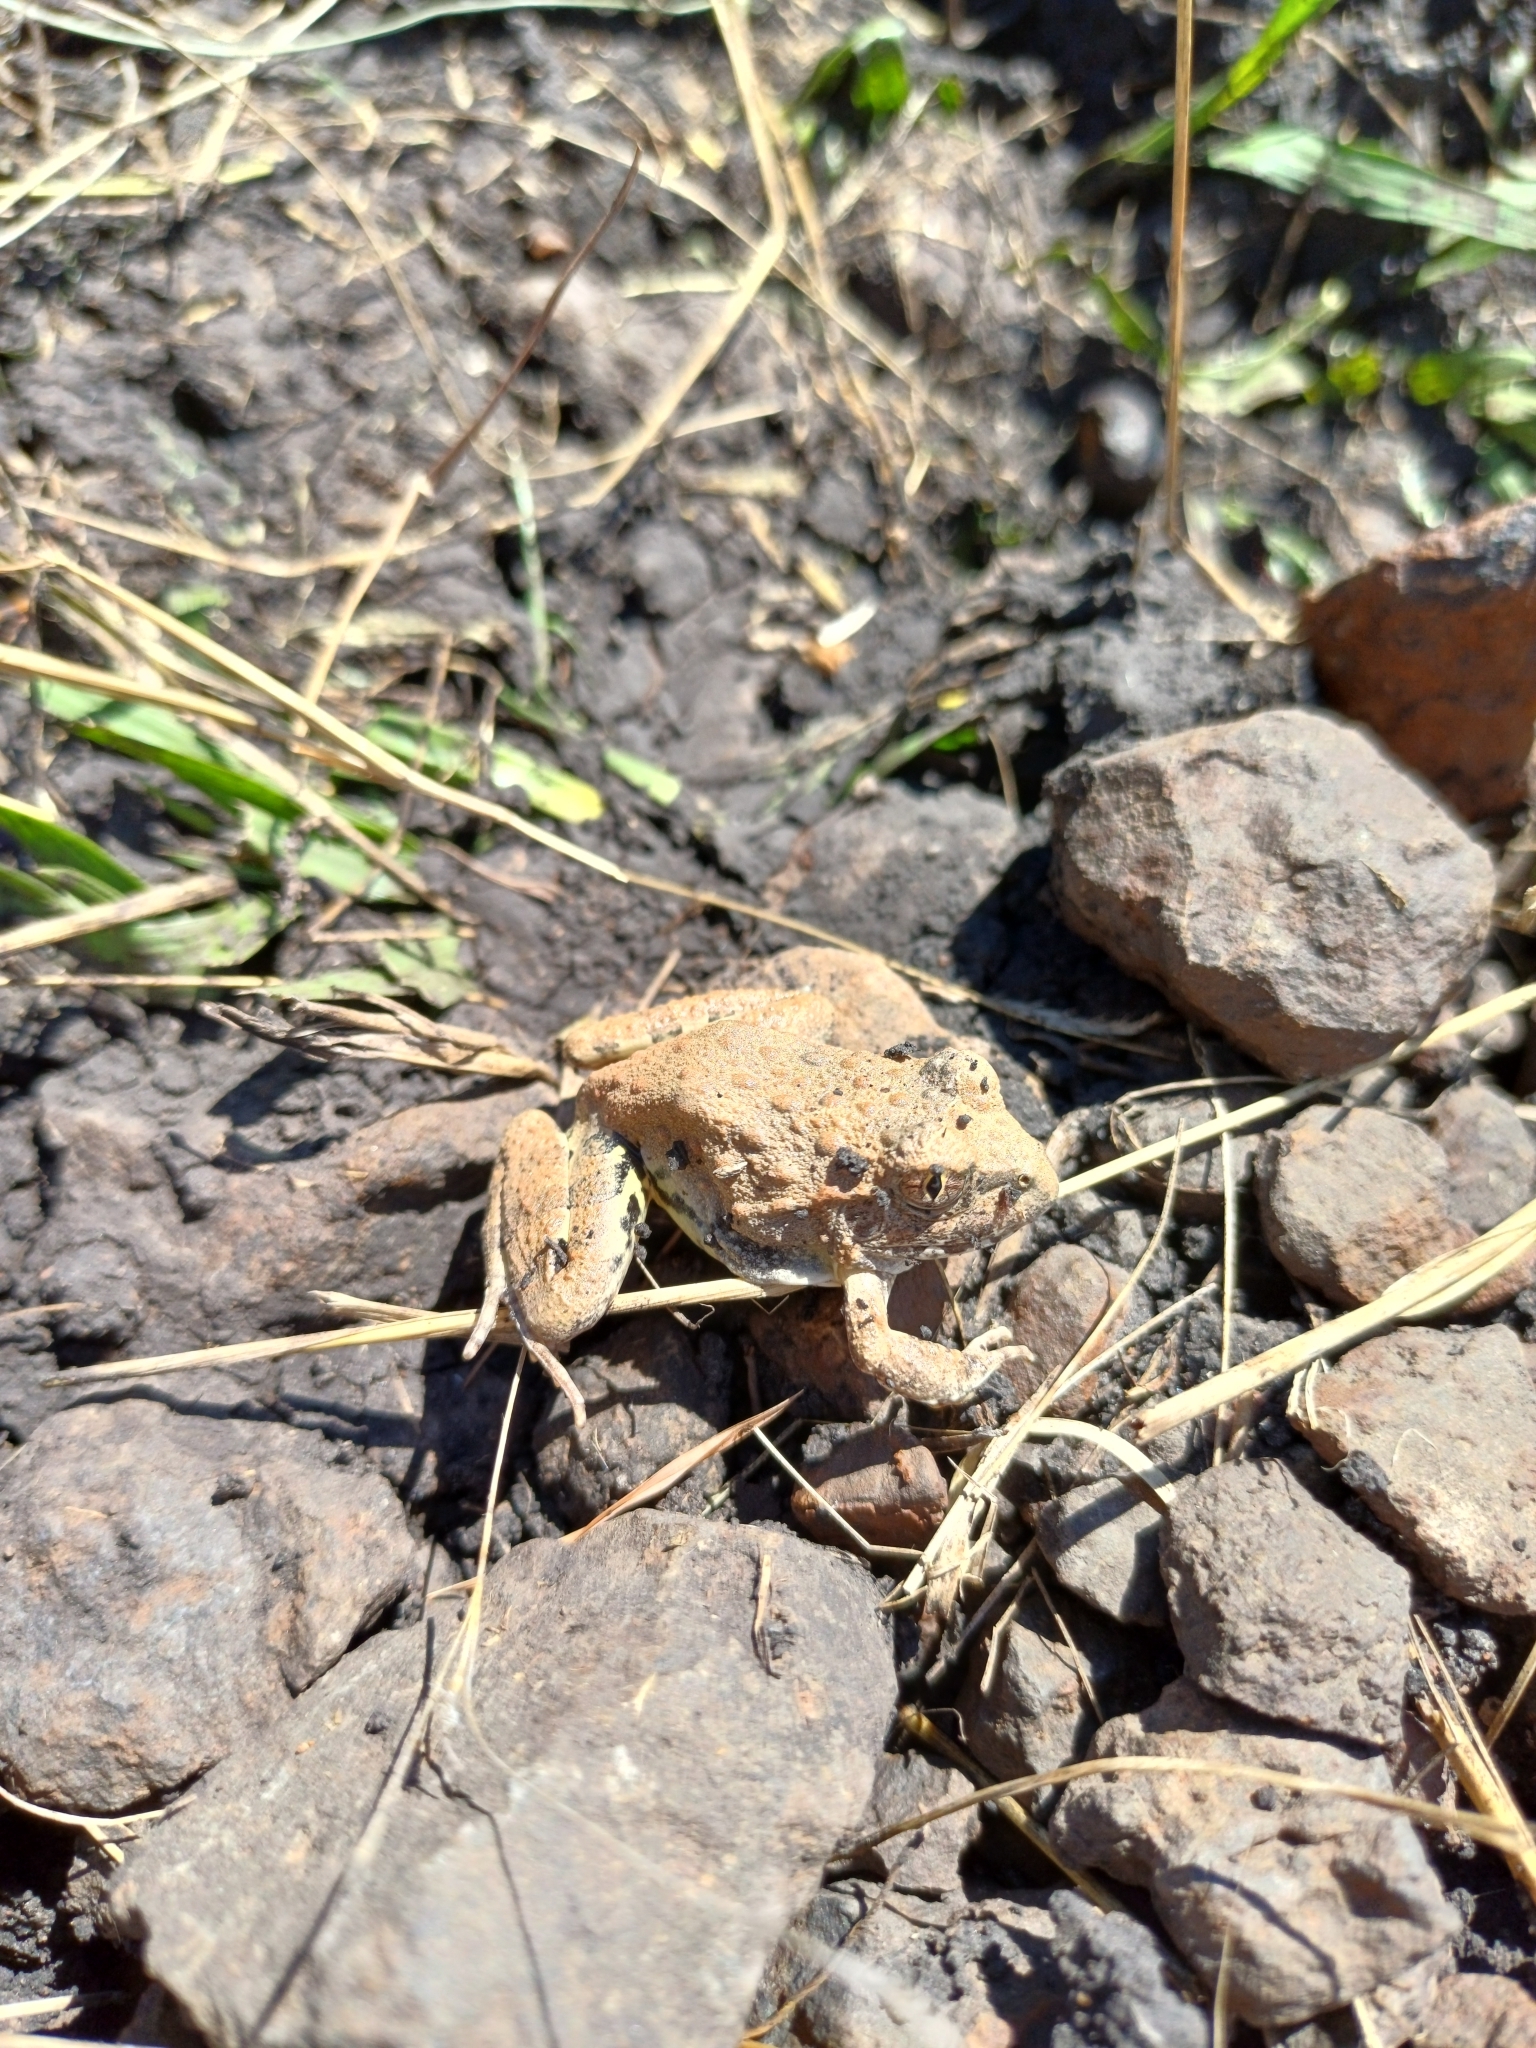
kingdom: Animalia
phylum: Chordata
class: Amphibia
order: Anura
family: Alsodidae
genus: Limnomedusa
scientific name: Limnomedusa macroglossa
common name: Rapids frog
